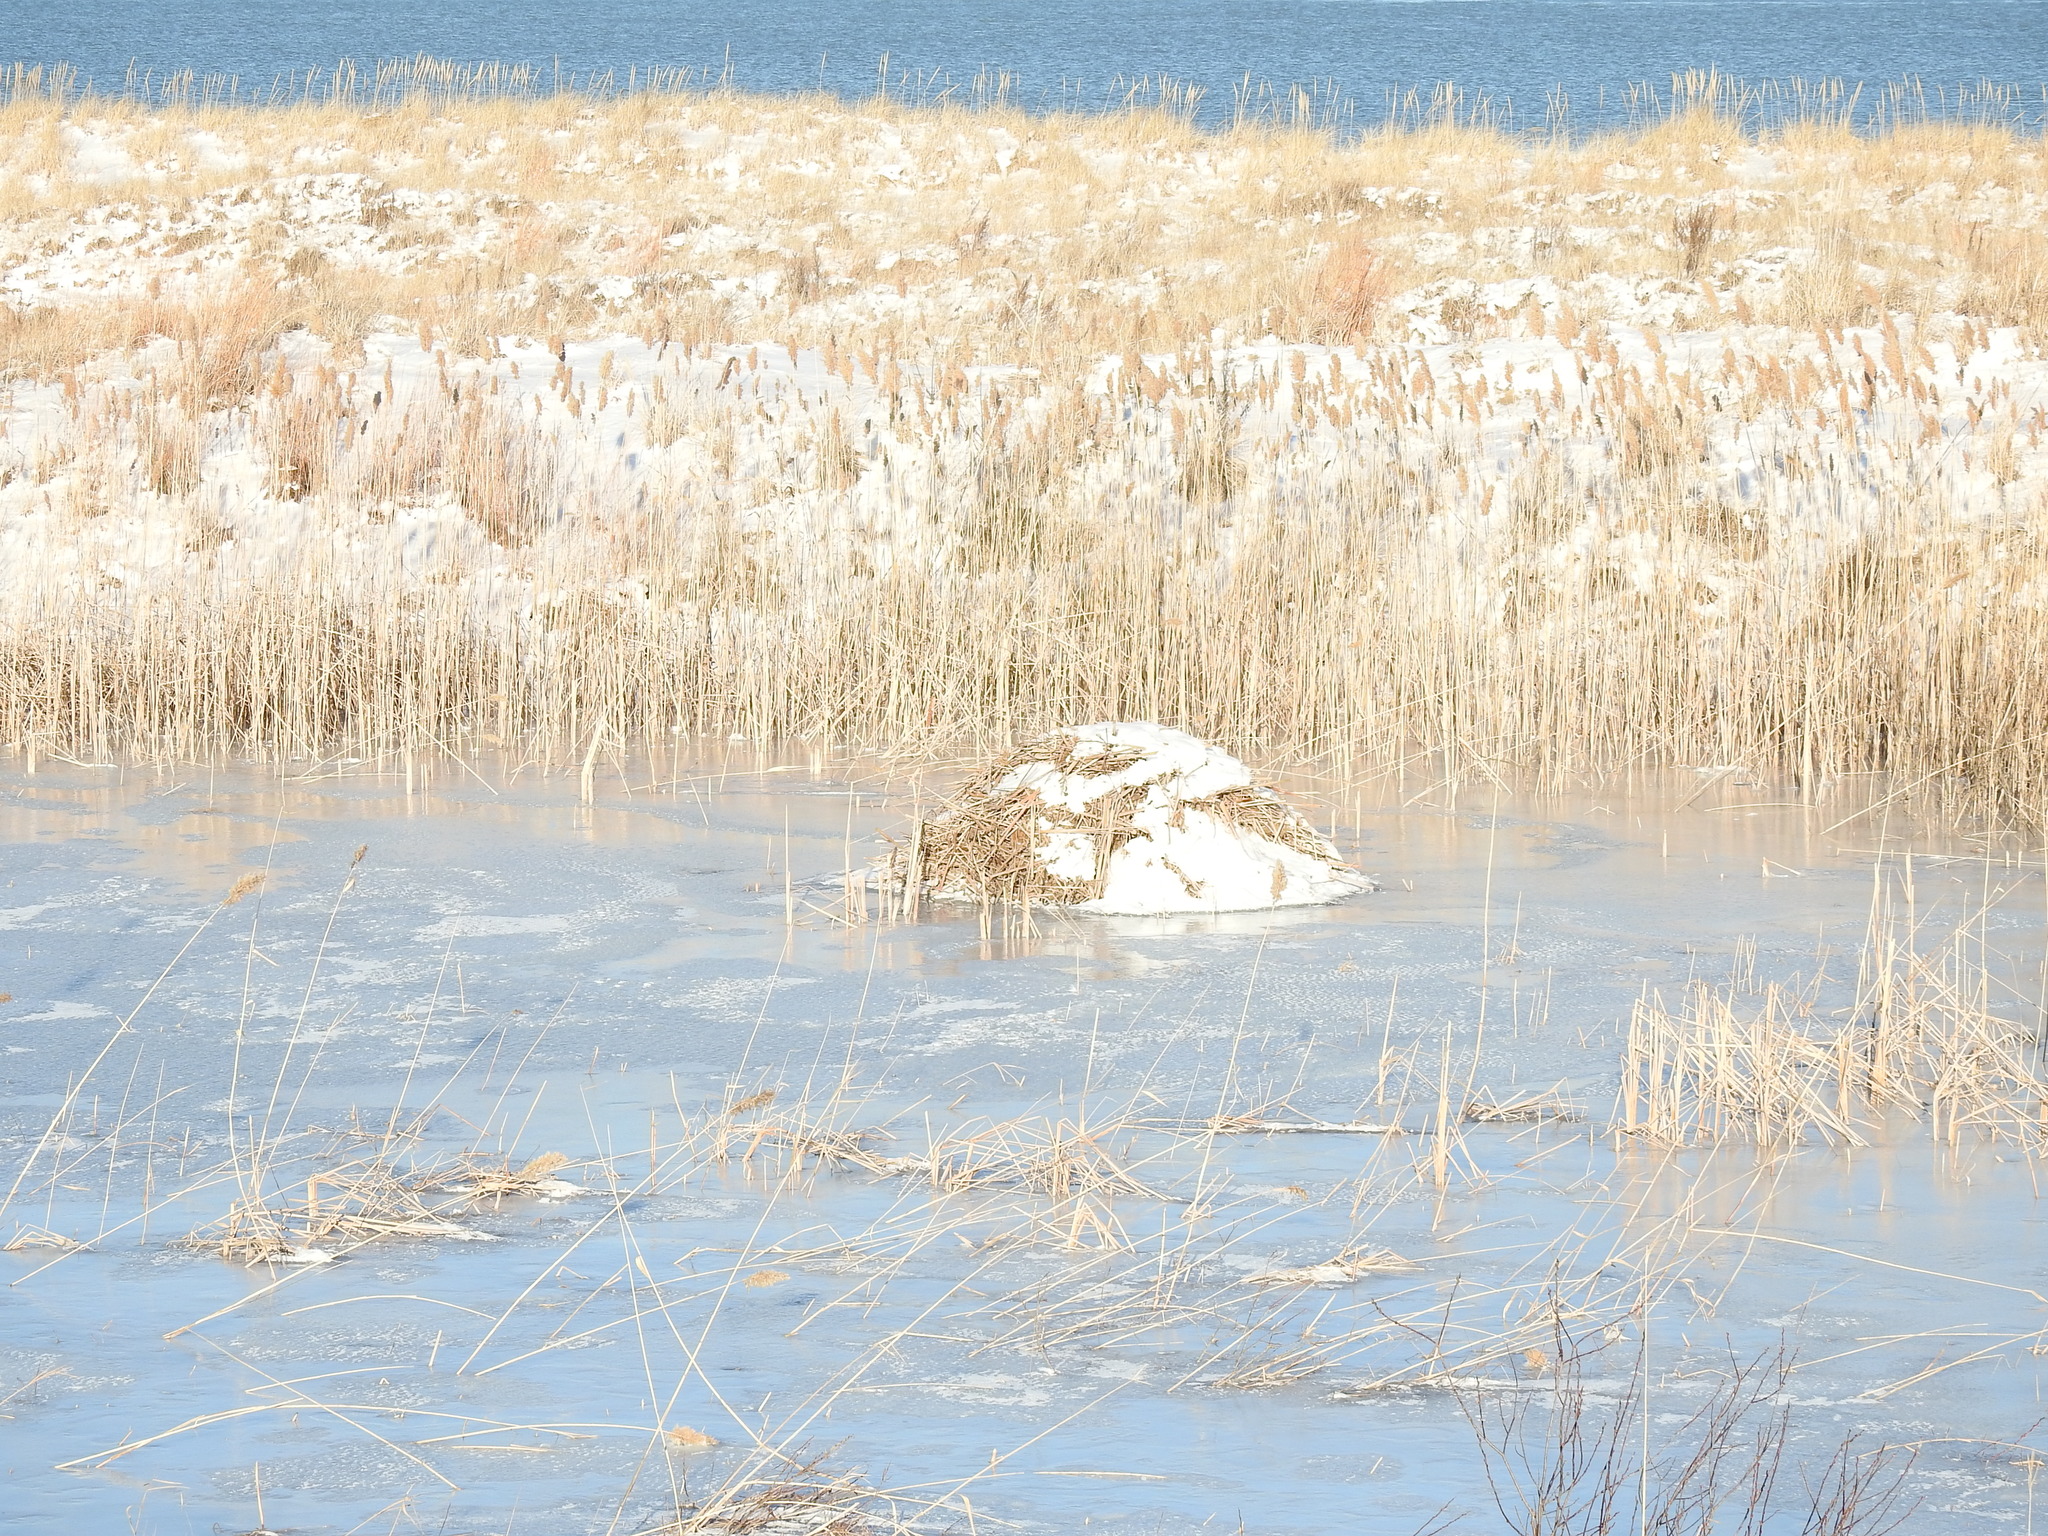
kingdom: Animalia
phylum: Chordata
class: Mammalia
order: Rodentia
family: Cricetidae
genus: Ondatra
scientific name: Ondatra zibethicus
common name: Muskrat
